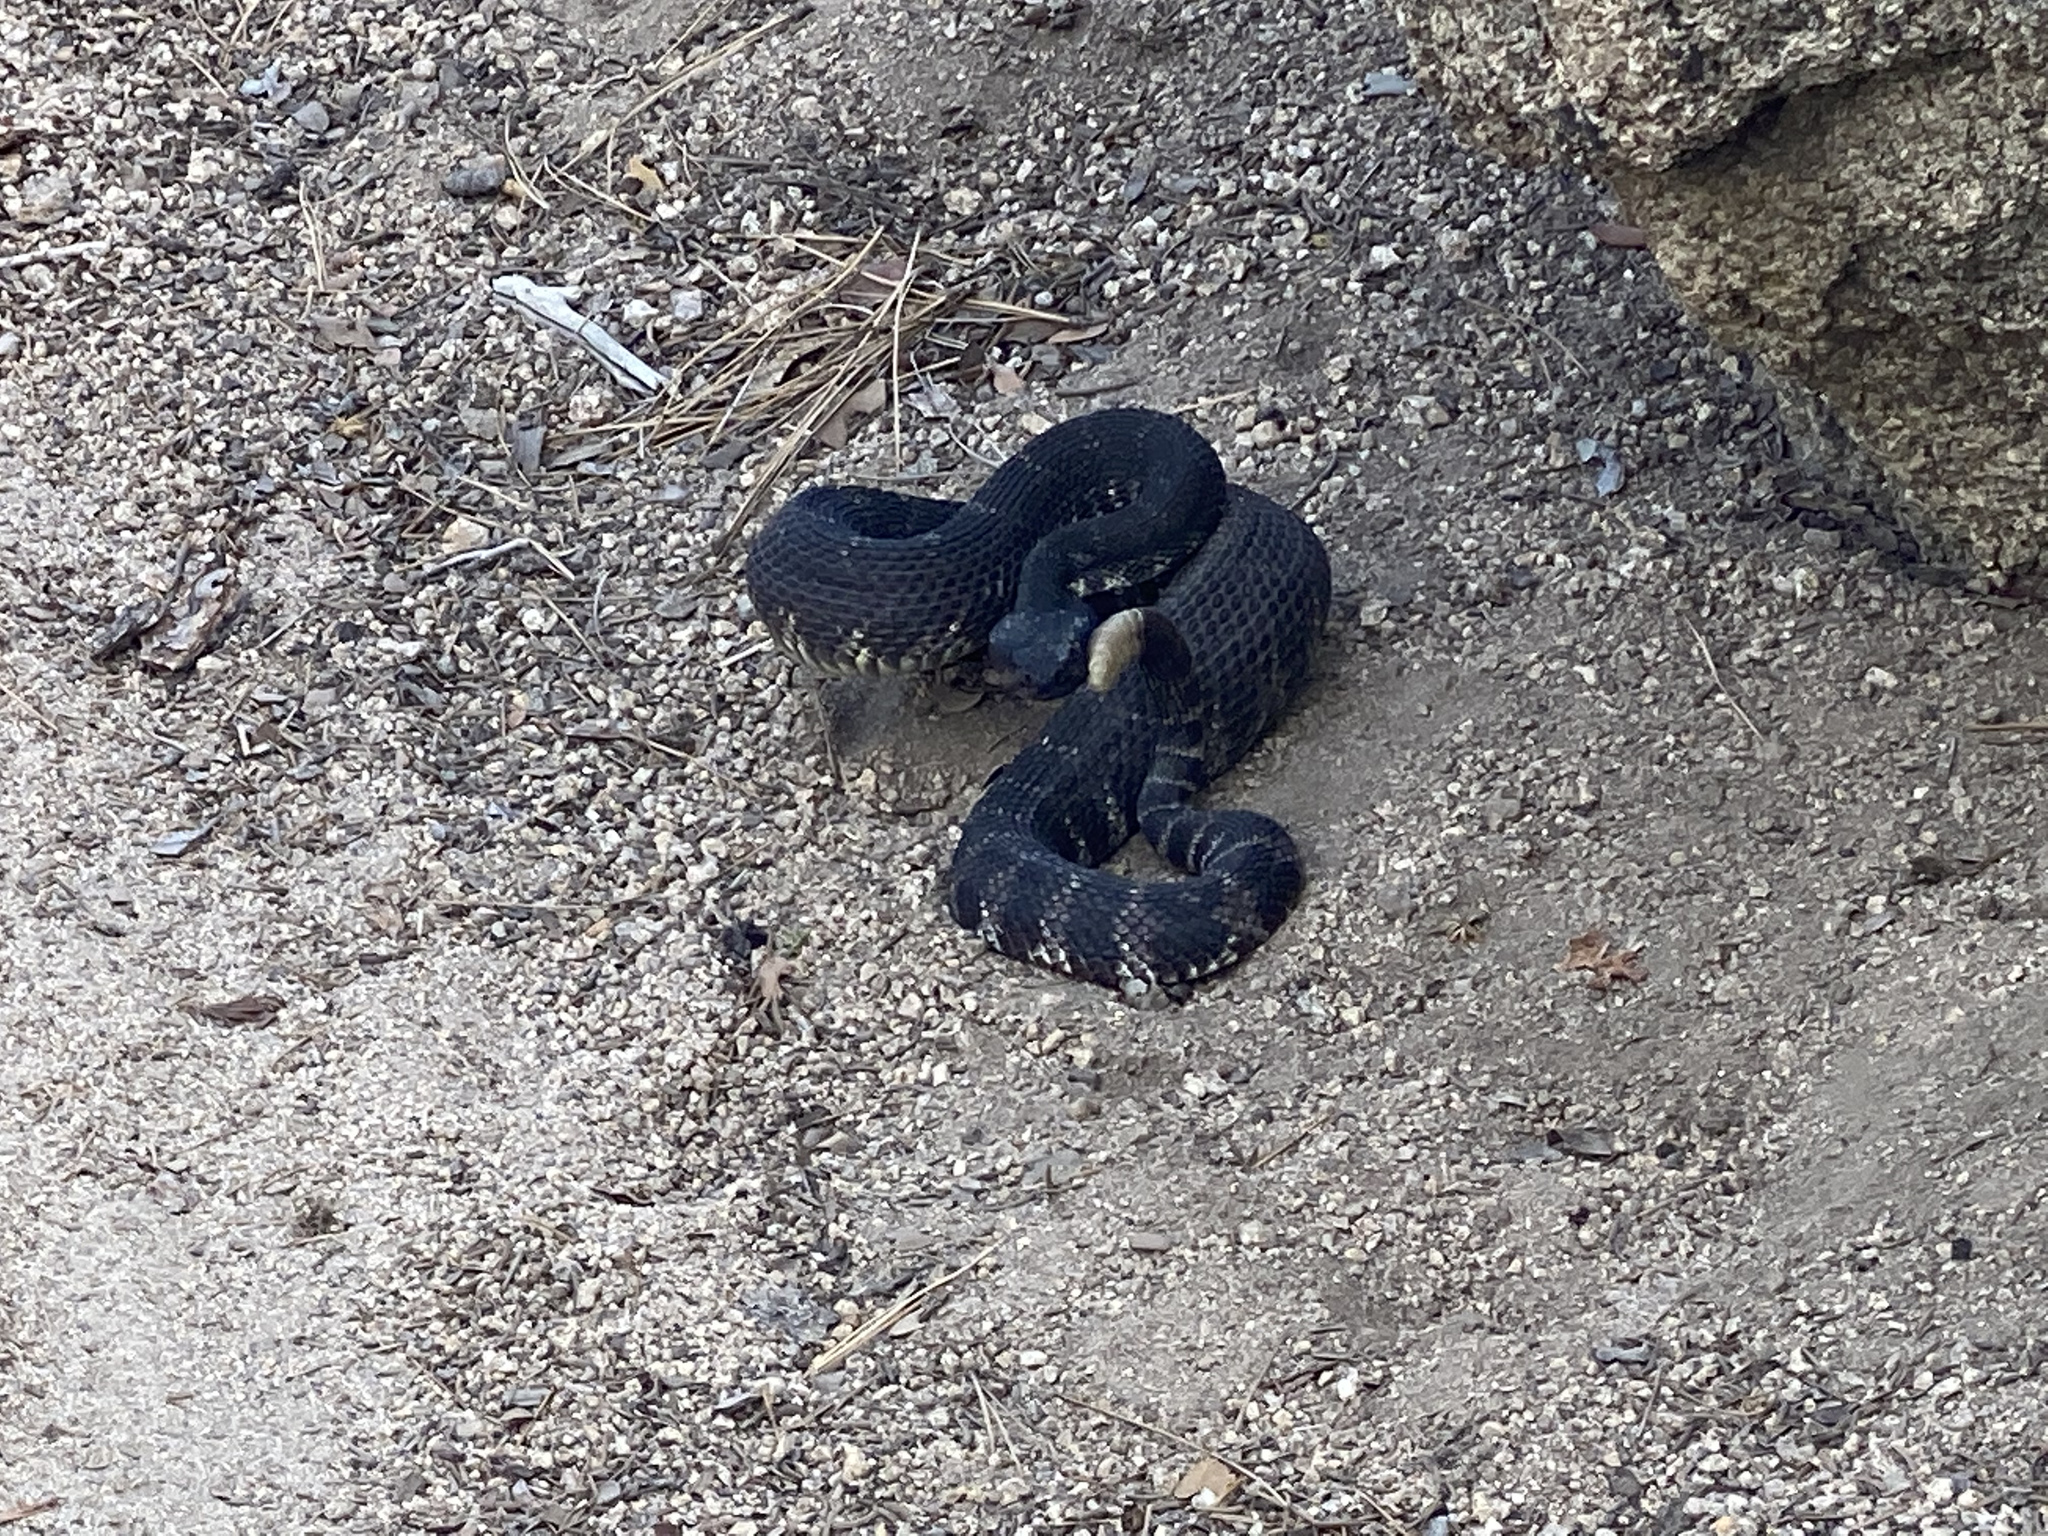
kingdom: Animalia
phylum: Chordata
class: Squamata
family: Viperidae
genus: Crotalus
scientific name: Crotalus oreganus
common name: Abyssus
